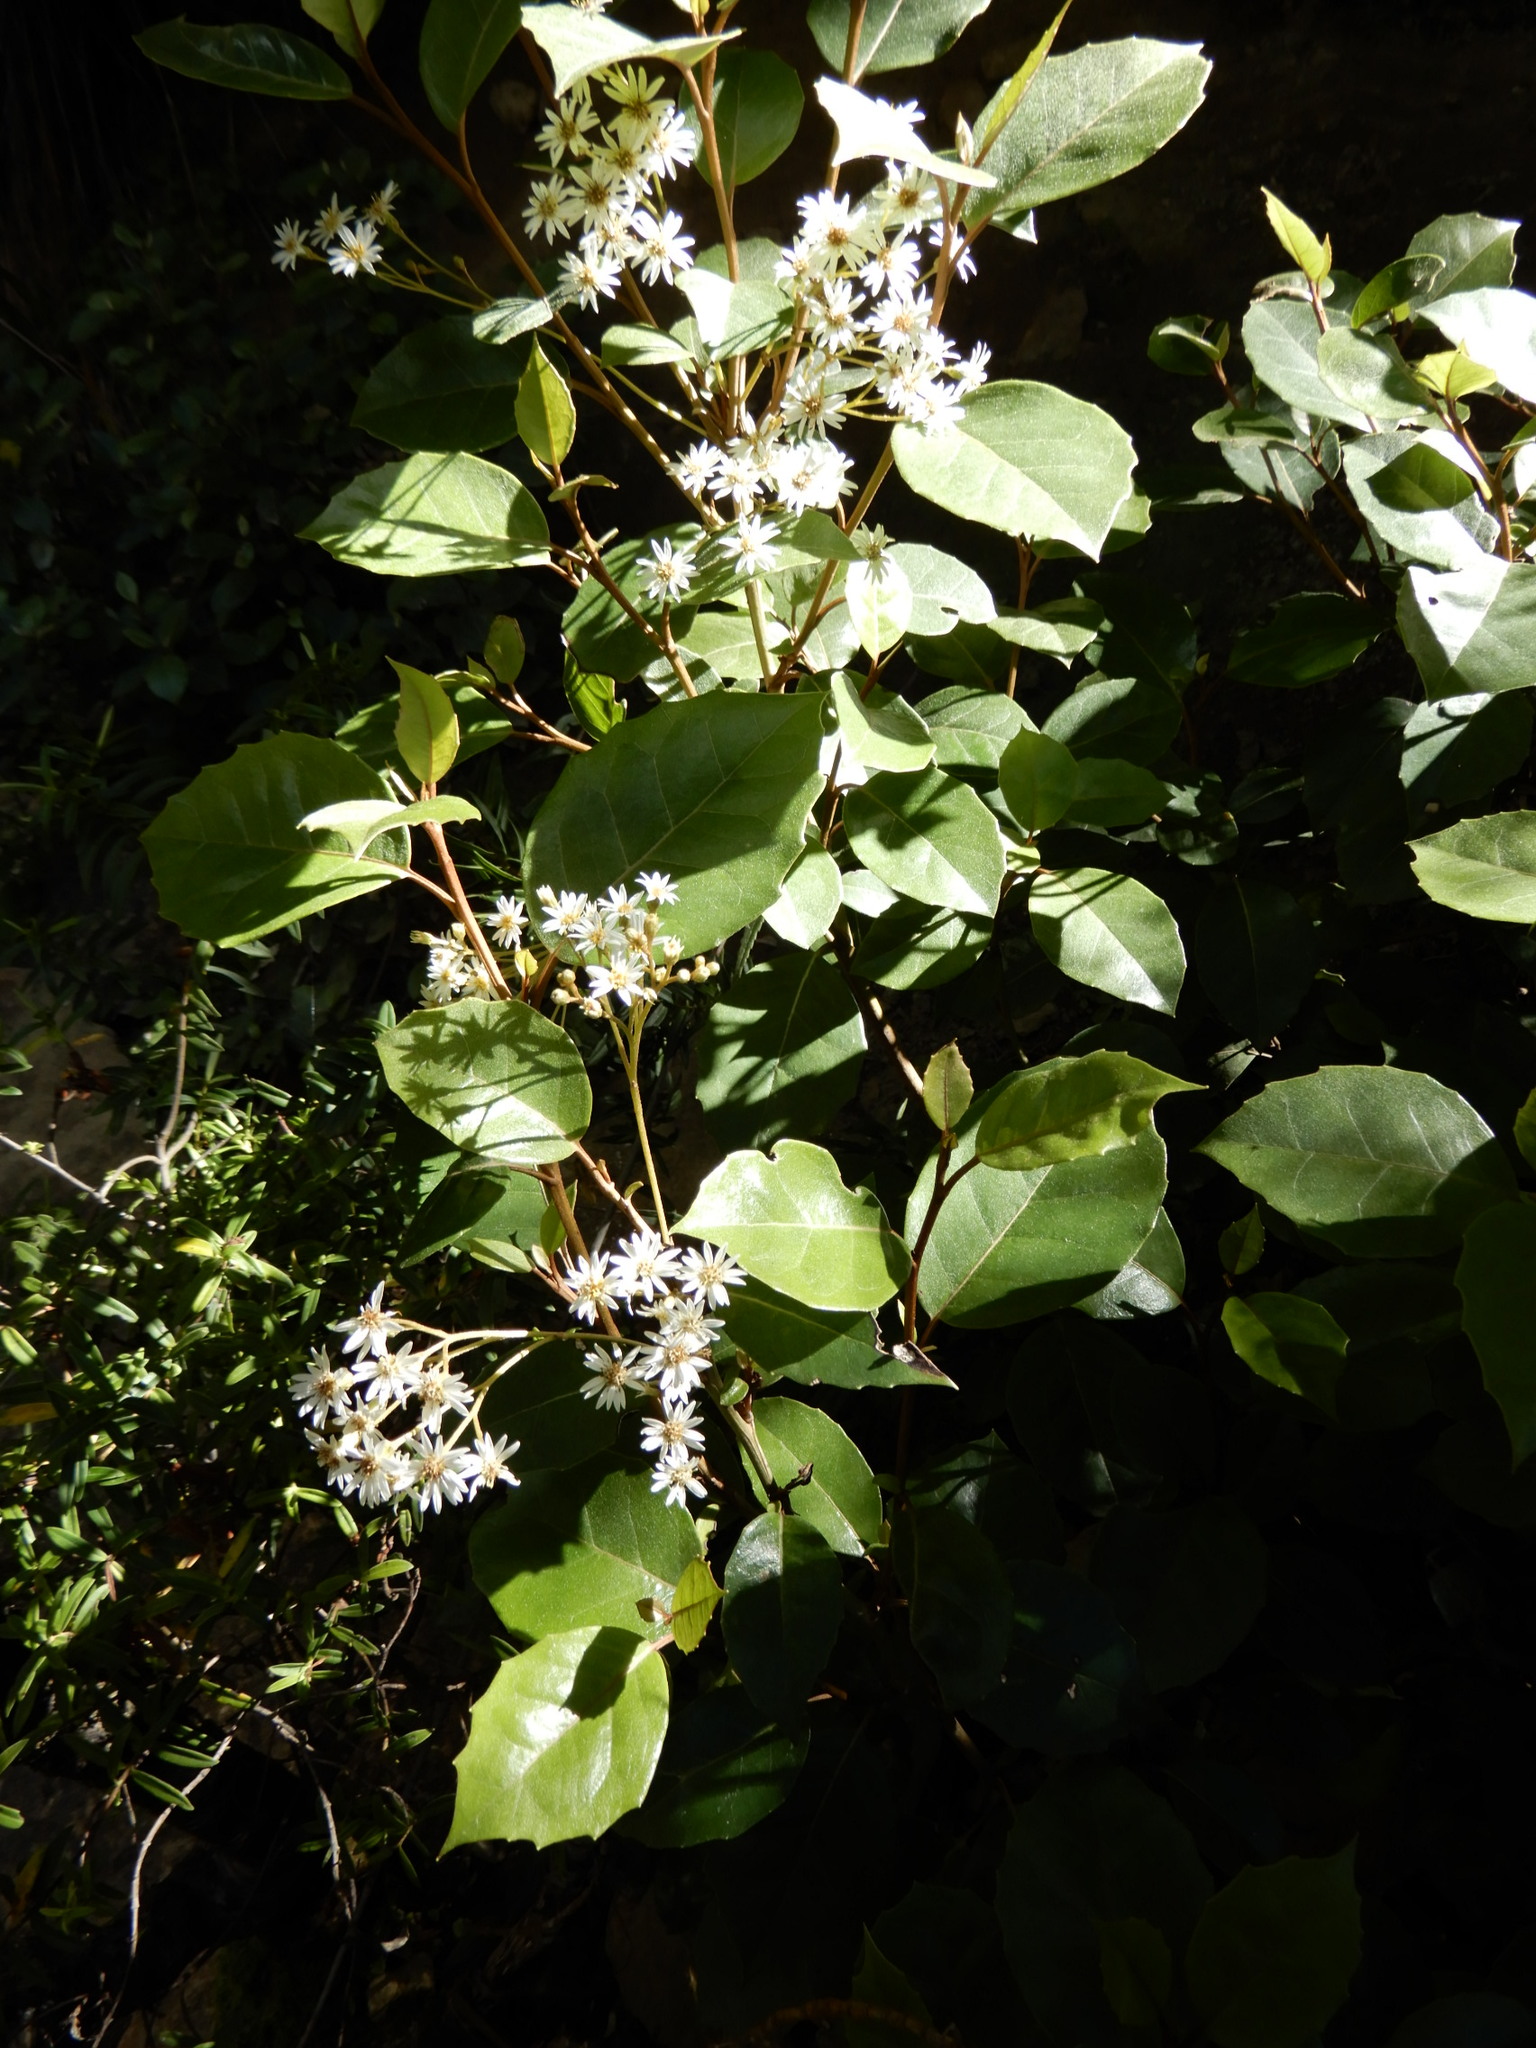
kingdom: Plantae
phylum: Tracheophyta
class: Magnoliopsida
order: Asterales
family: Asteraceae
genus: Olearia
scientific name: Olearia arborescens
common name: Glossy tree daisy
